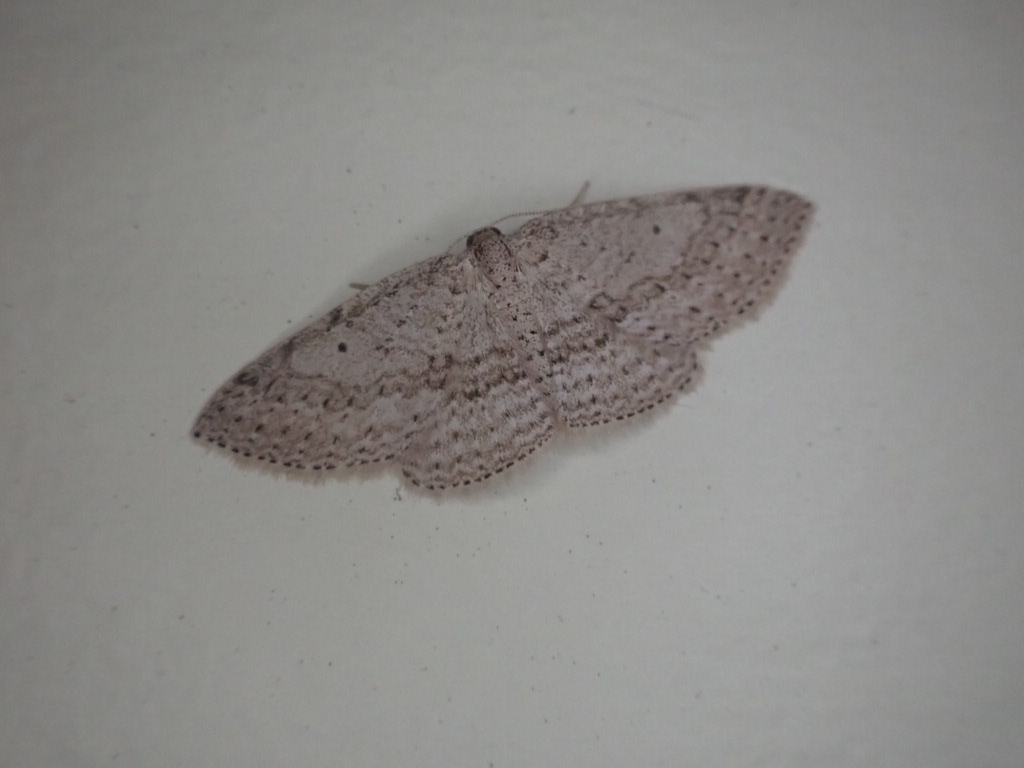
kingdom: Animalia
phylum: Arthropoda
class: Insecta
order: Lepidoptera
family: Geometridae
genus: Poecilasthena
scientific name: Poecilasthena schistaria
